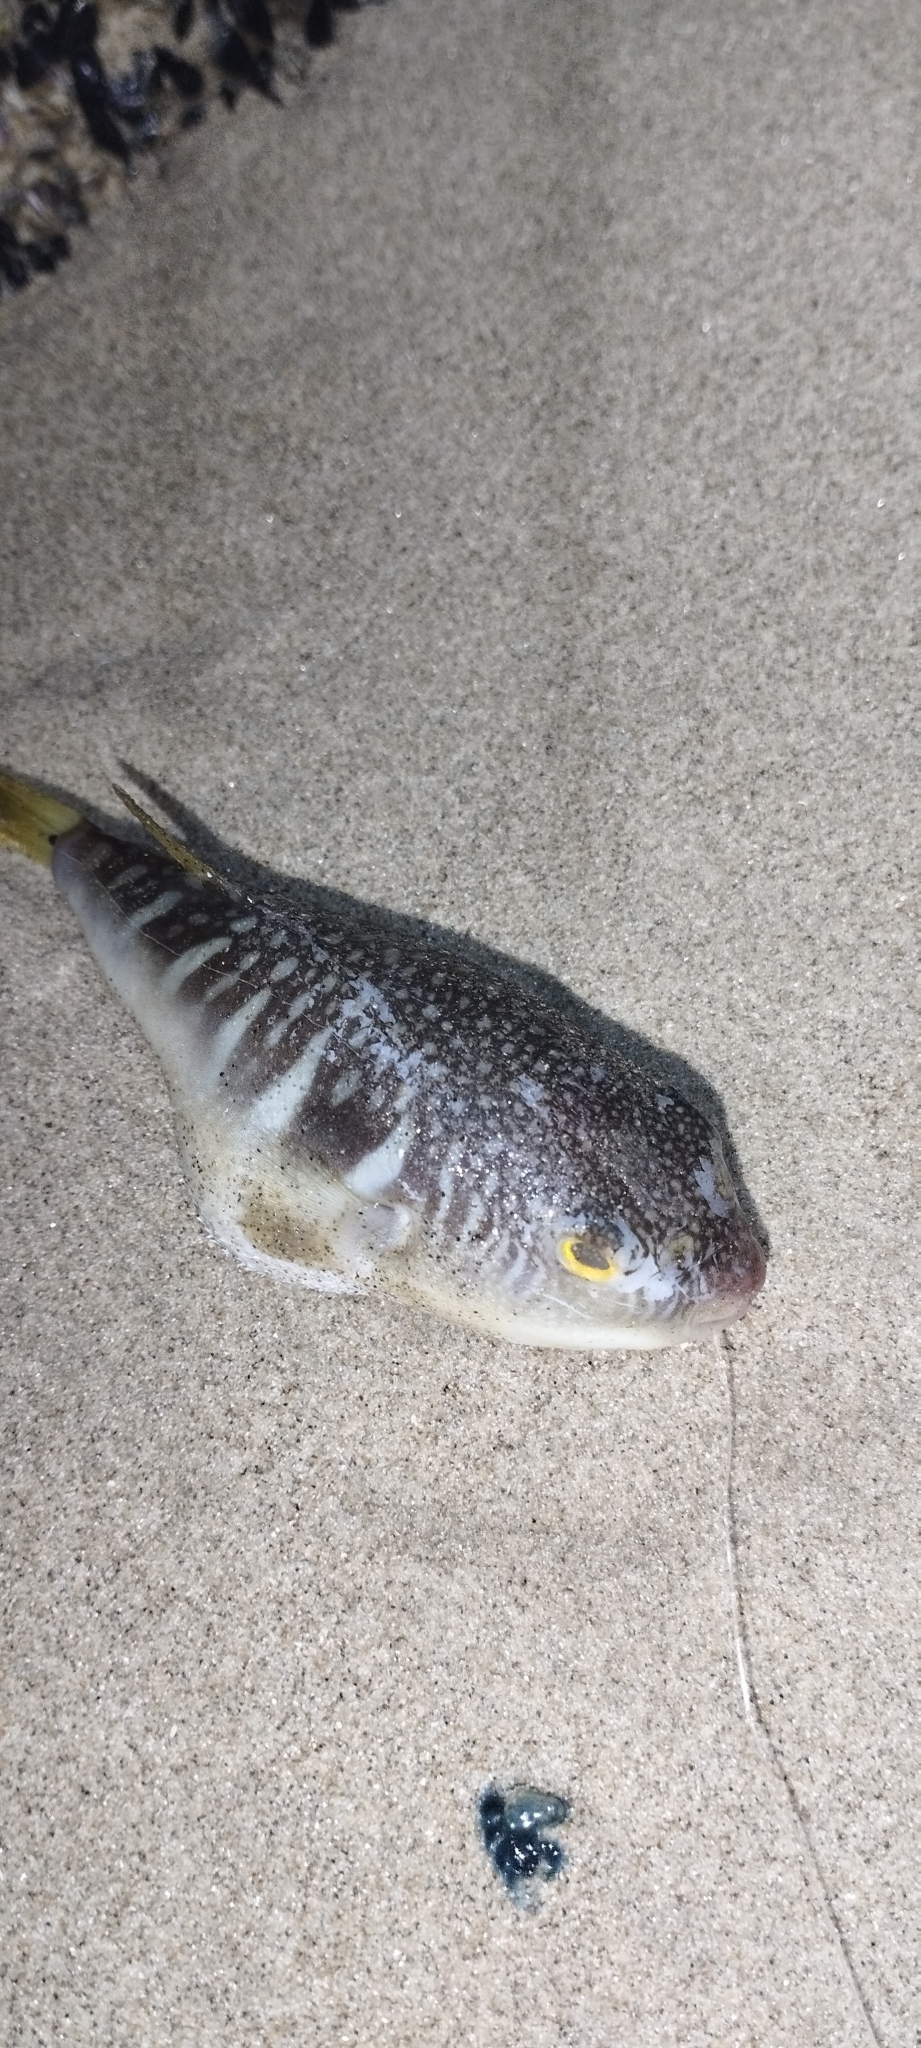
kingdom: Animalia
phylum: Chordata
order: Tetraodontiformes
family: Tetraodontidae
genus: Takifugu
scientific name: Takifugu oblongus
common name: Lattice blaasop
